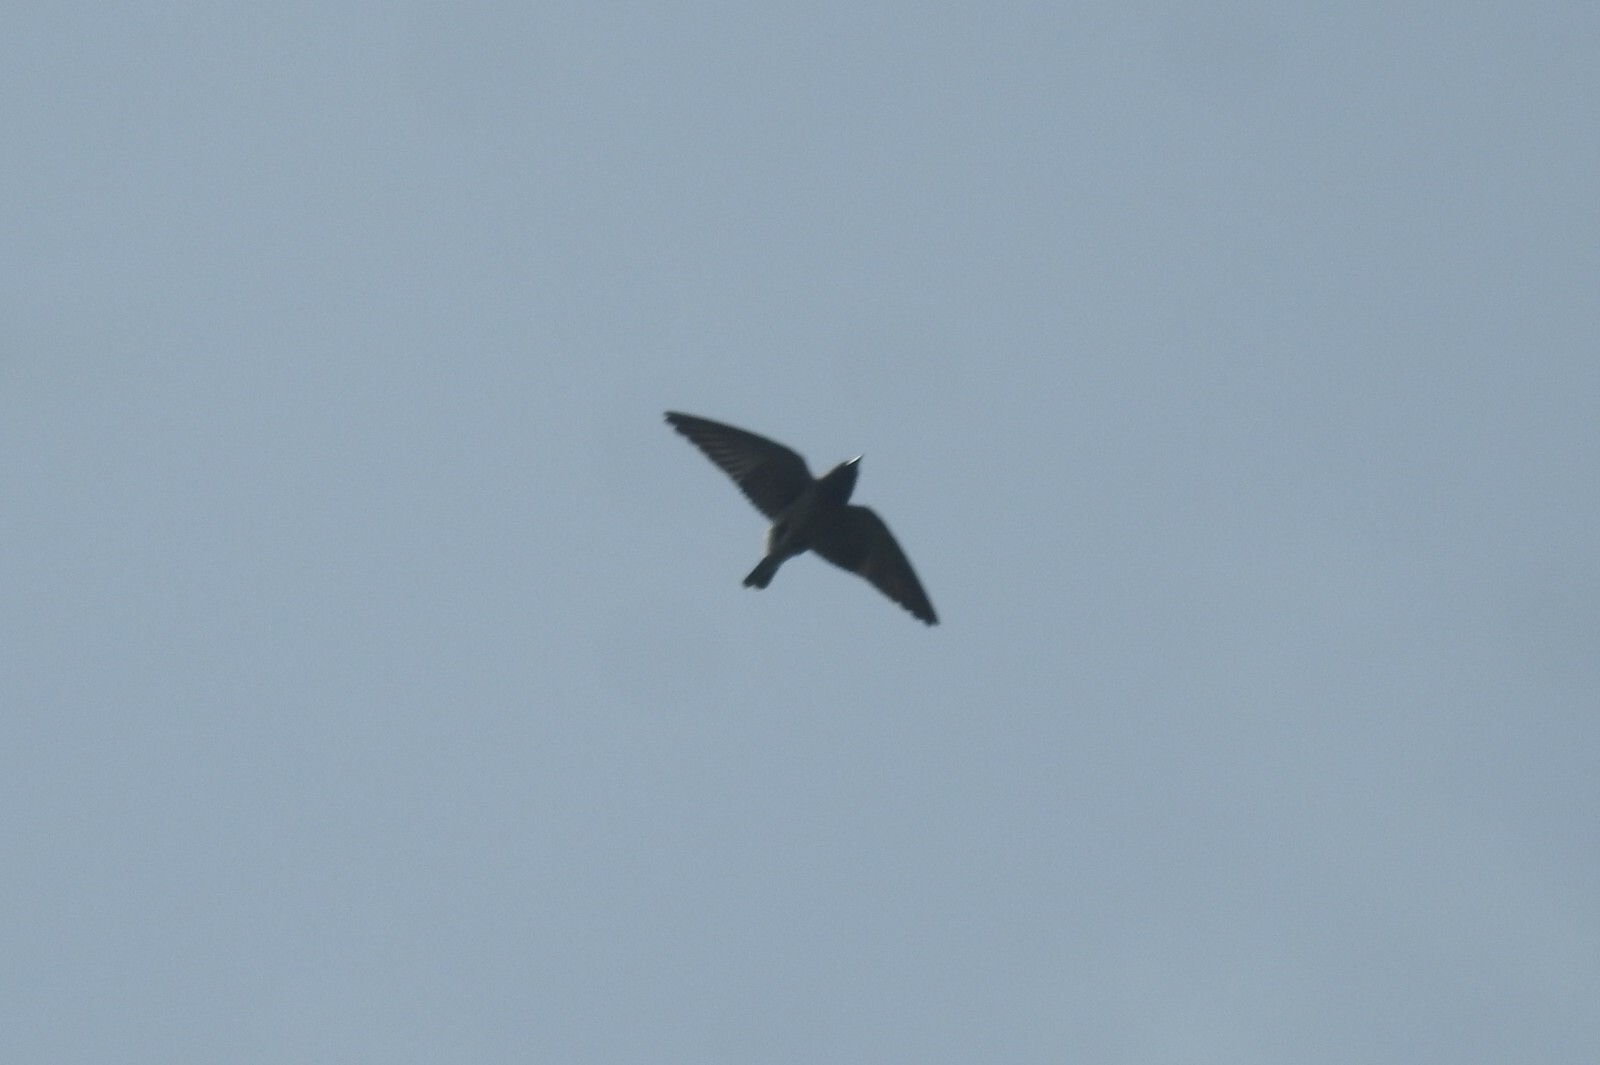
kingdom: Animalia
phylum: Chordata
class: Aves
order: Passeriformes
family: Artamidae
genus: Artamus
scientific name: Artamus fuscus
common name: Ashy woodswallow
